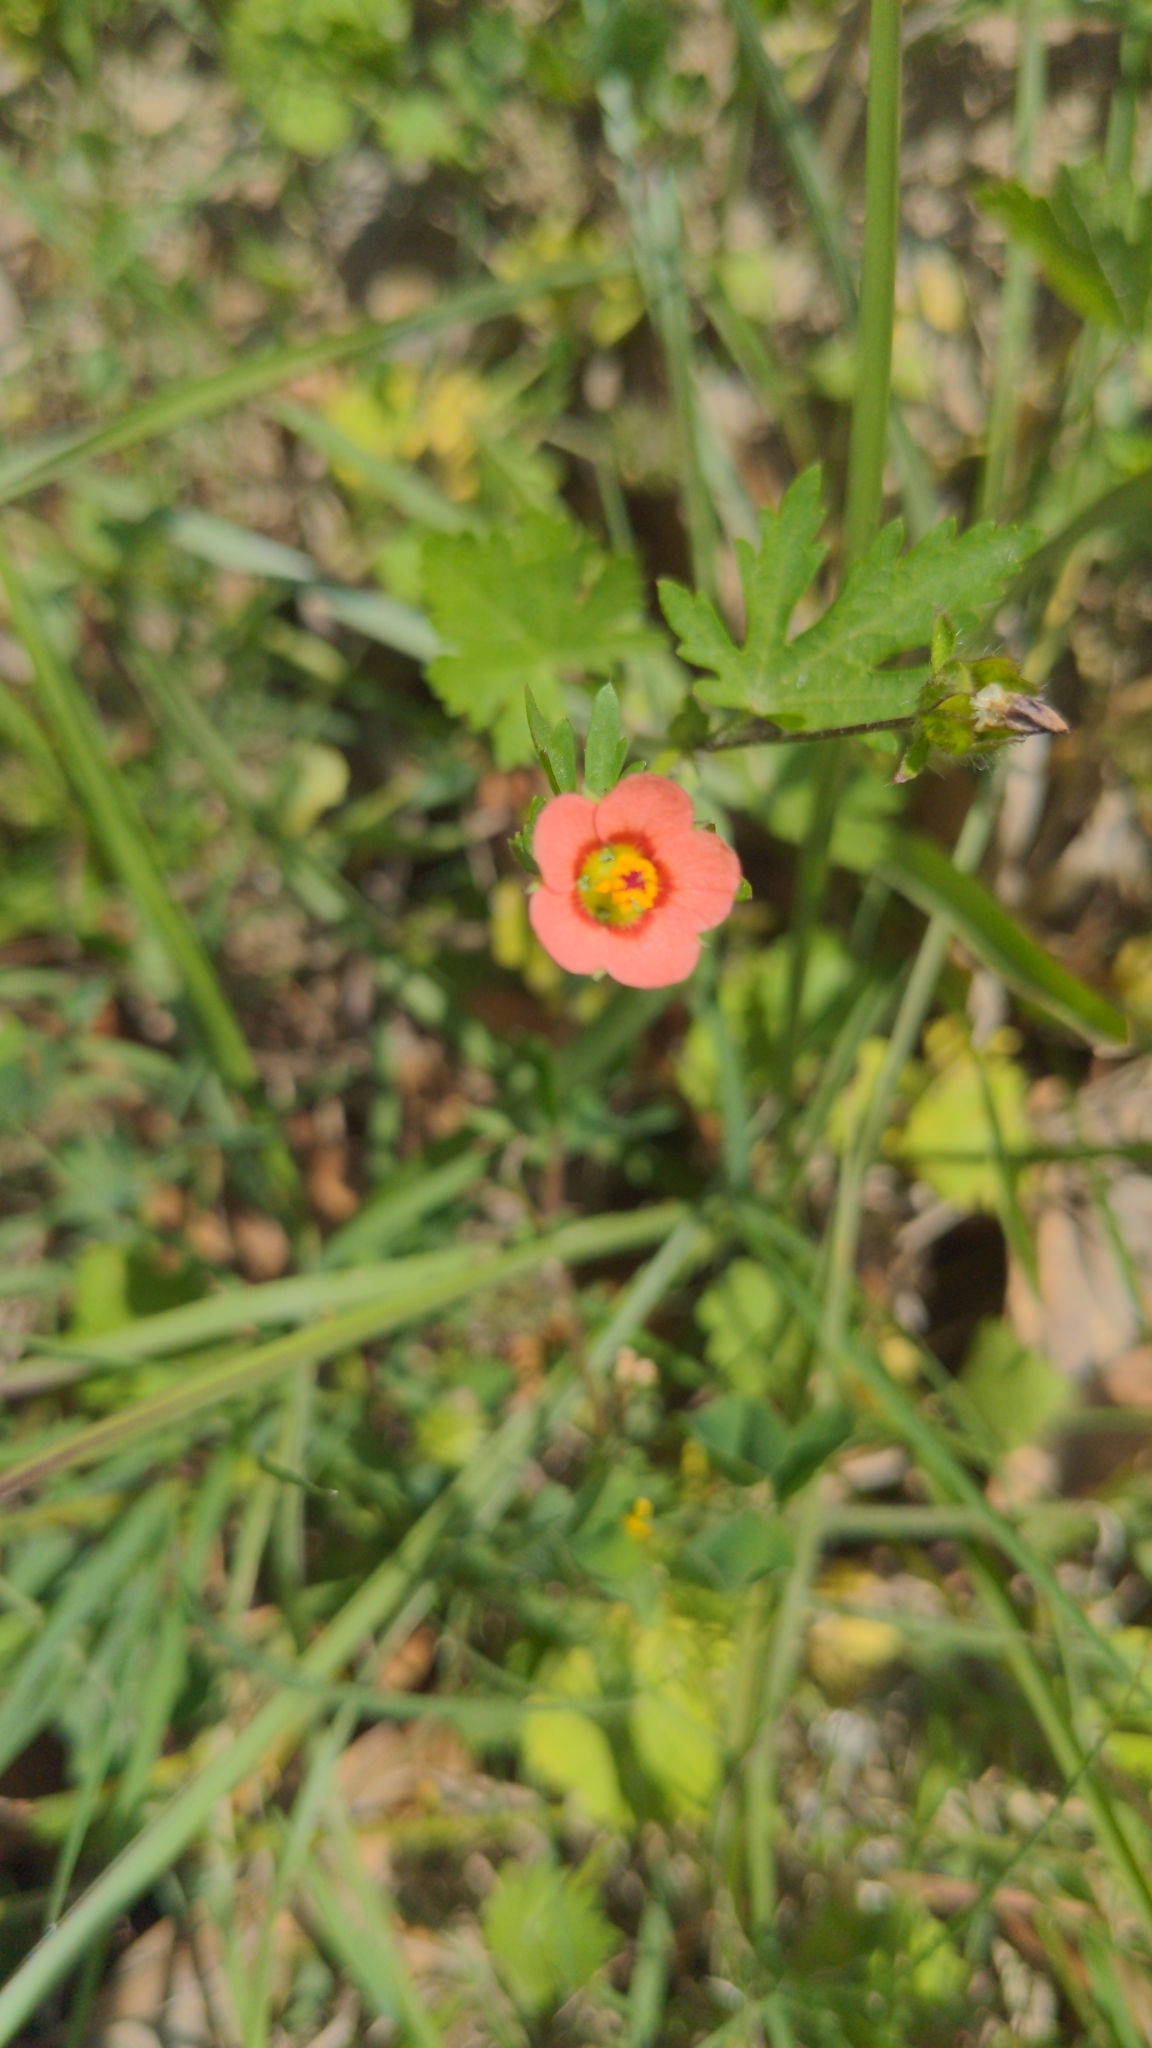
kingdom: Plantae
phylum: Tracheophyta
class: Magnoliopsida
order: Malvales
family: Malvaceae
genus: Modiola
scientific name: Modiola caroliniana
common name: Carolina bristlemallow
